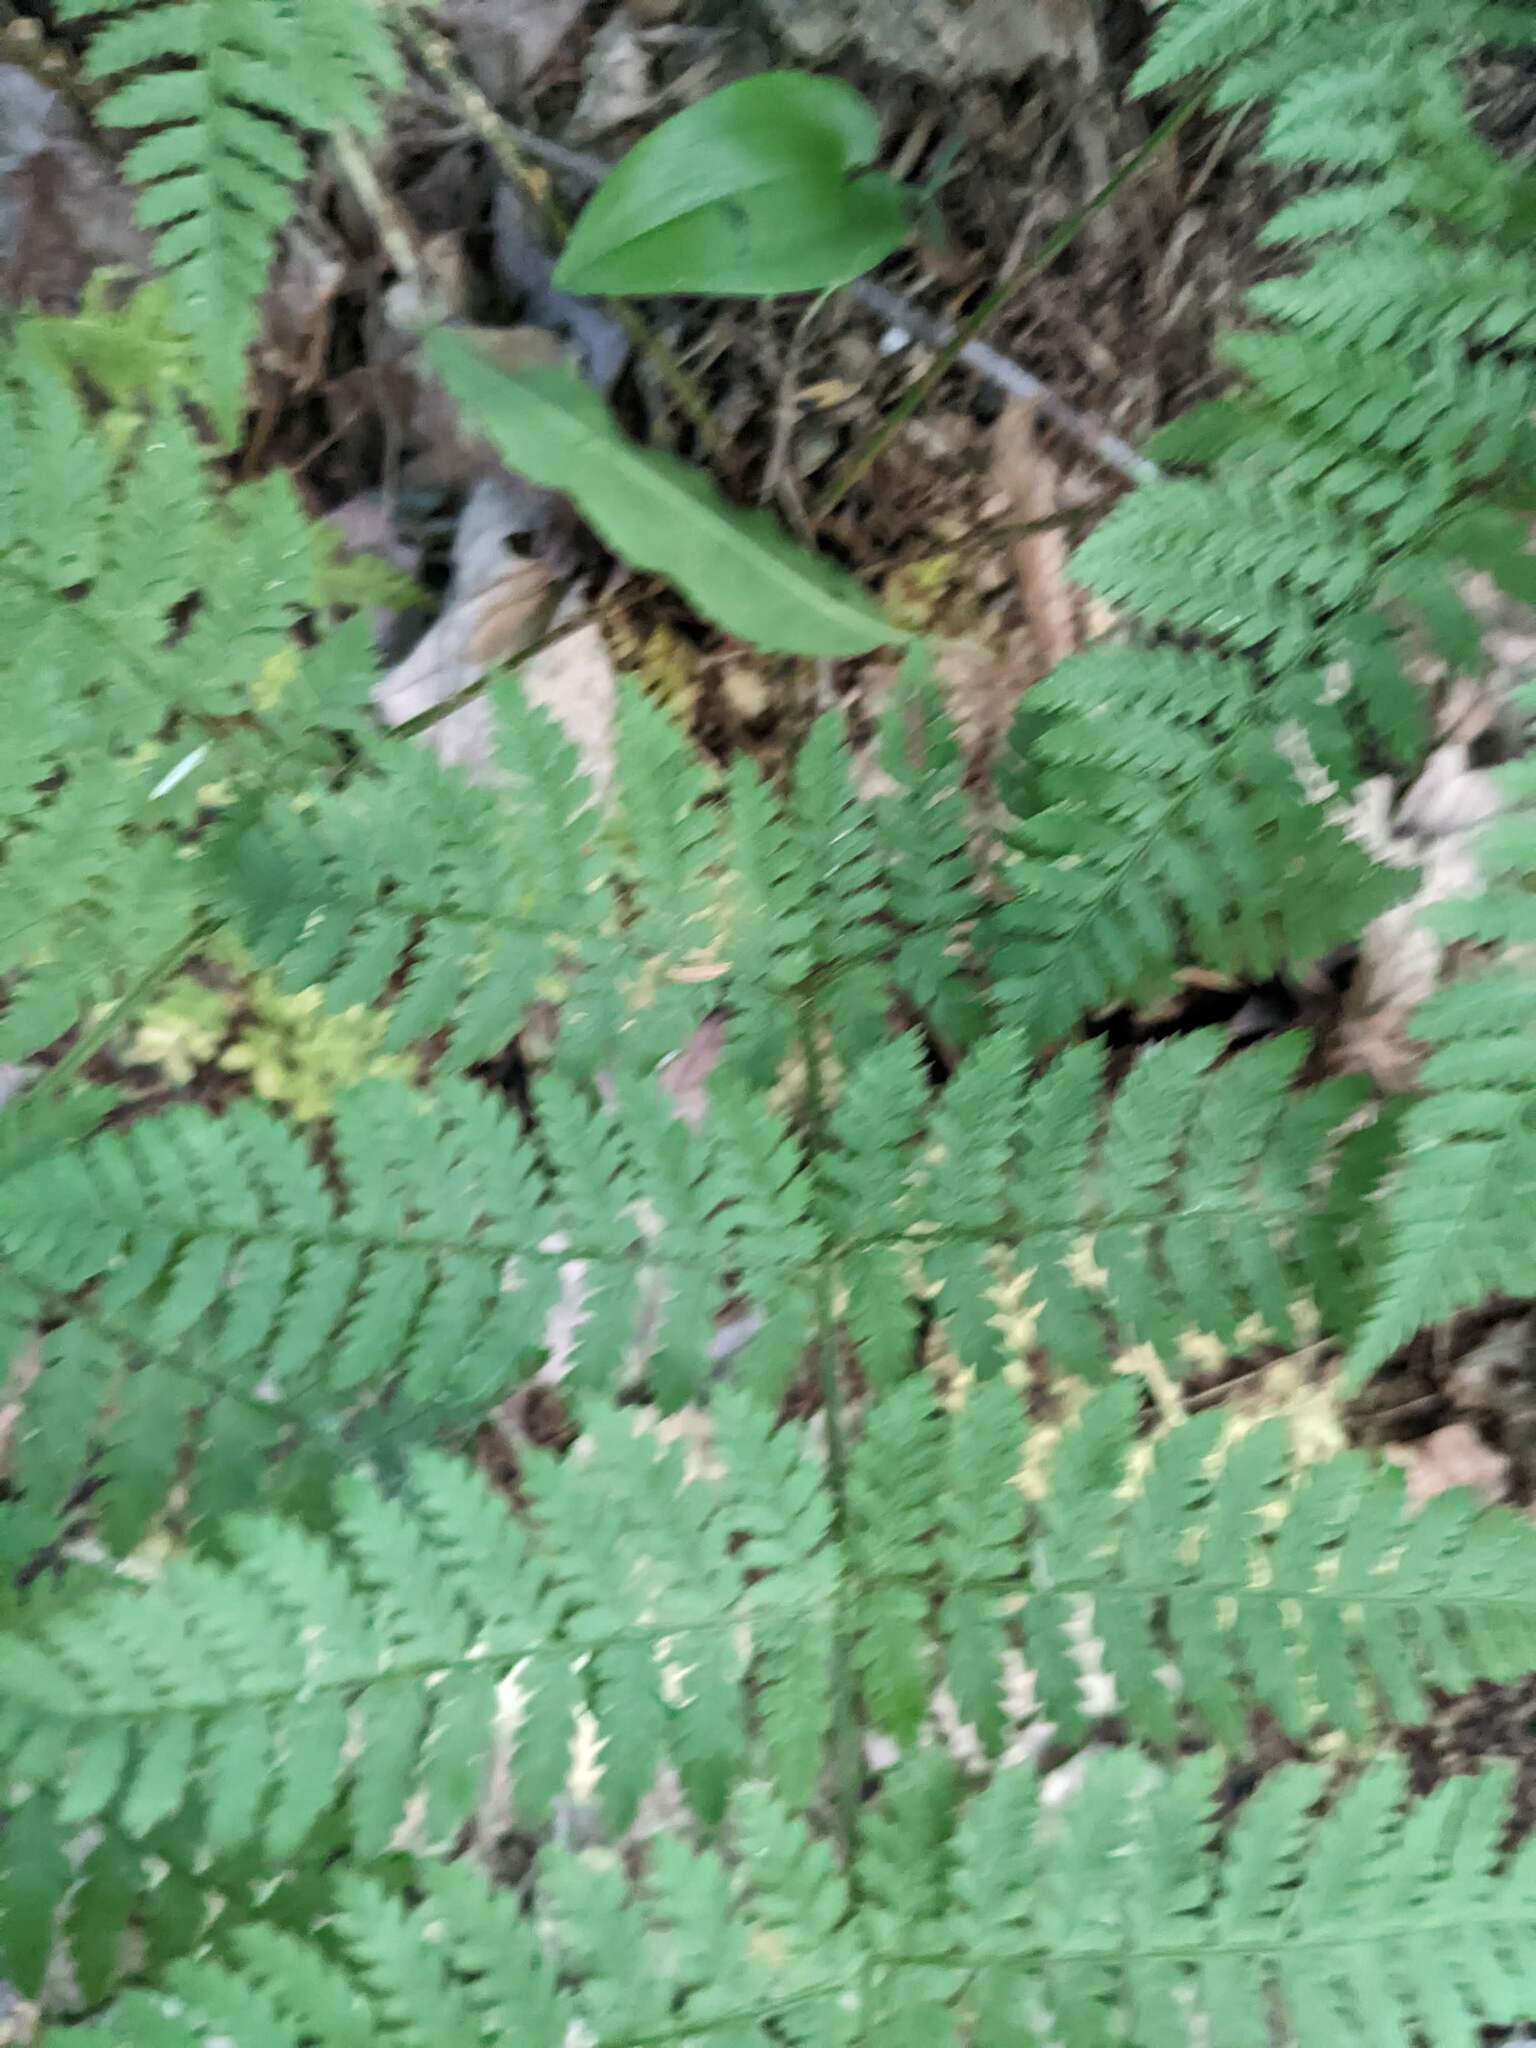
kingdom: Plantae
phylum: Tracheophyta
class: Polypodiopsida
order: Polypodiales
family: Dryopteridaceae
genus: Dryopteris
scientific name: Dryopteris intermedia
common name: Evergreen wood fern
